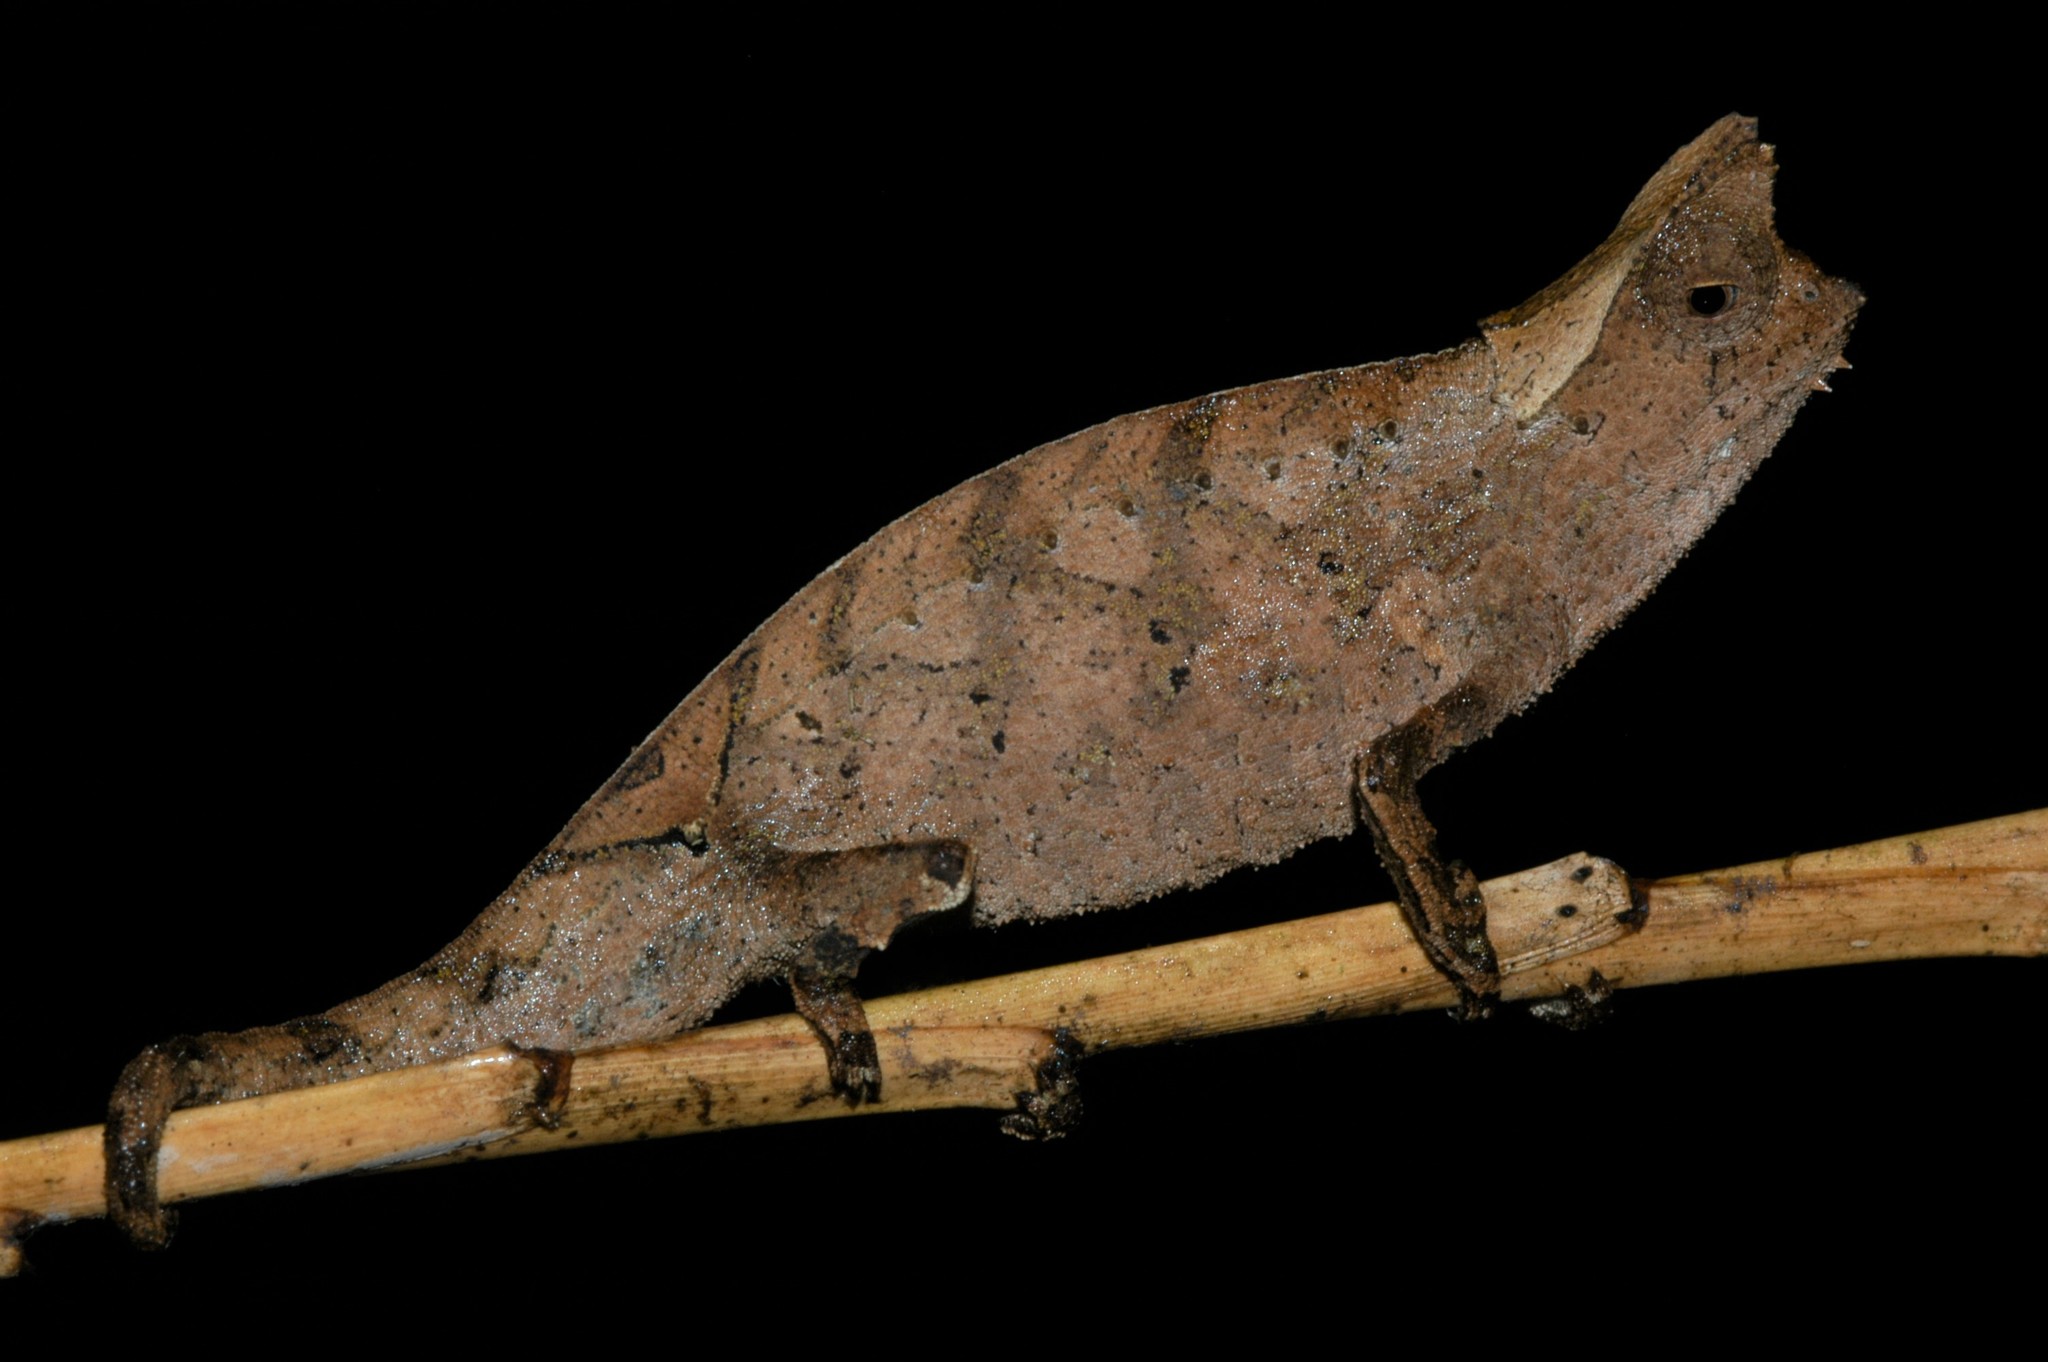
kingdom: Animalia
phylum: Chordata
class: Squamata
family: Chamaeleonidae
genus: Brookesia
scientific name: Brookesia superciliaris
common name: Brown leaf chameleon
